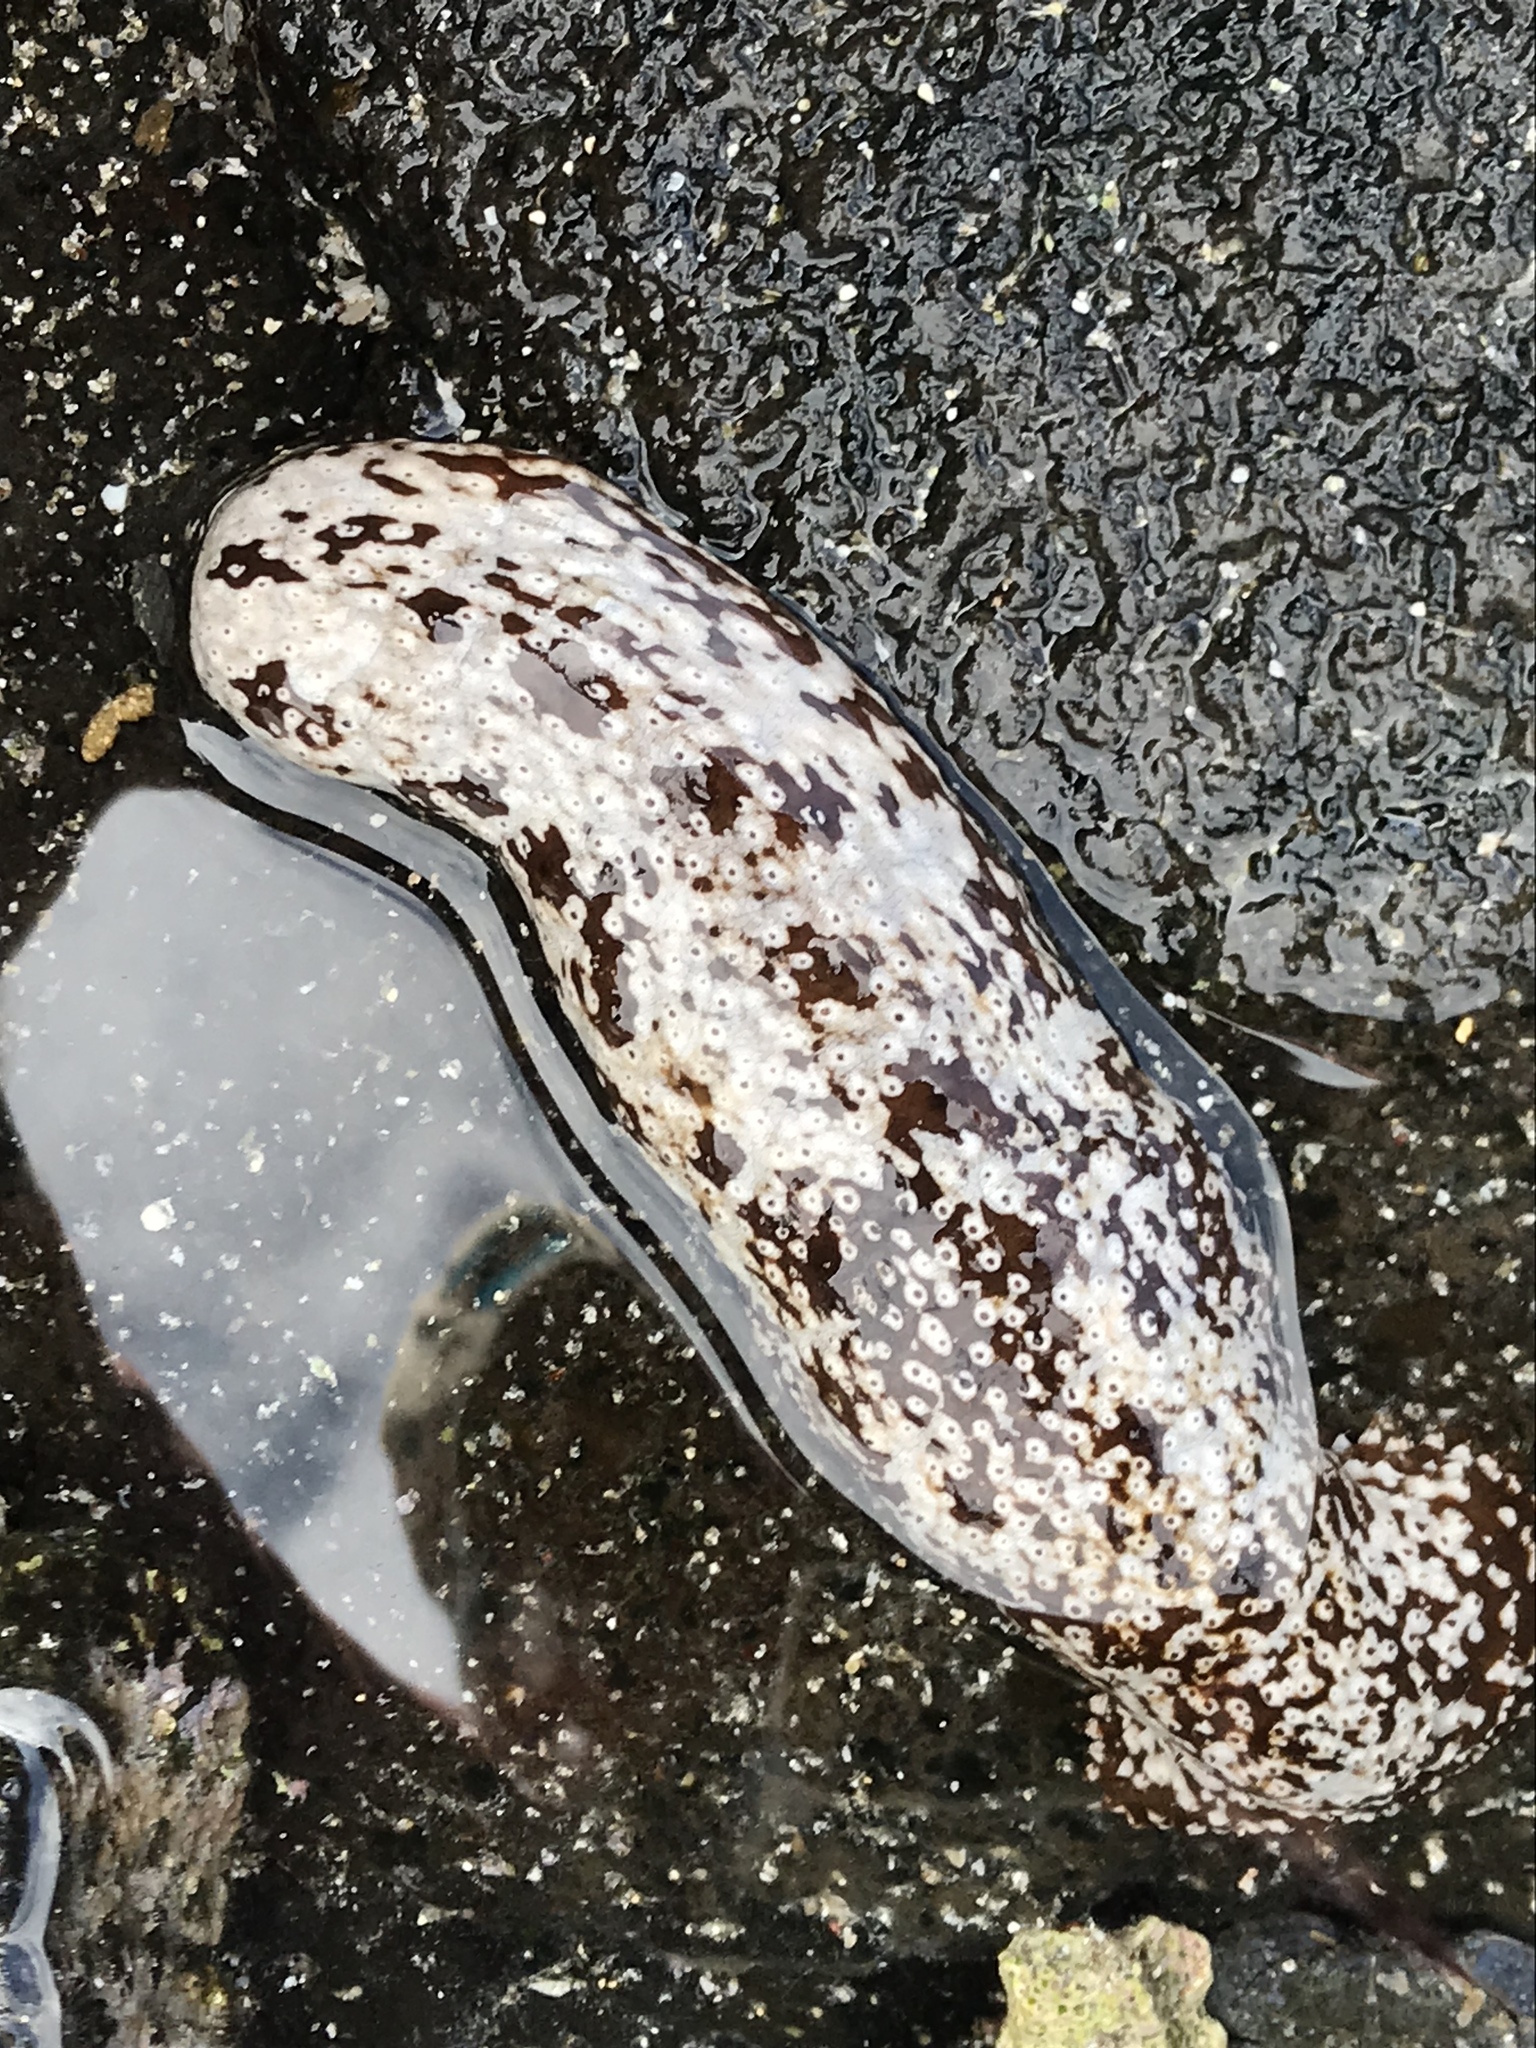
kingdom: Animalia
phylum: Echinodermata
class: Holothuroidea
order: Holothuriida
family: Holothuriidae
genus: Actinopyga
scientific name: Actinopyga varians
